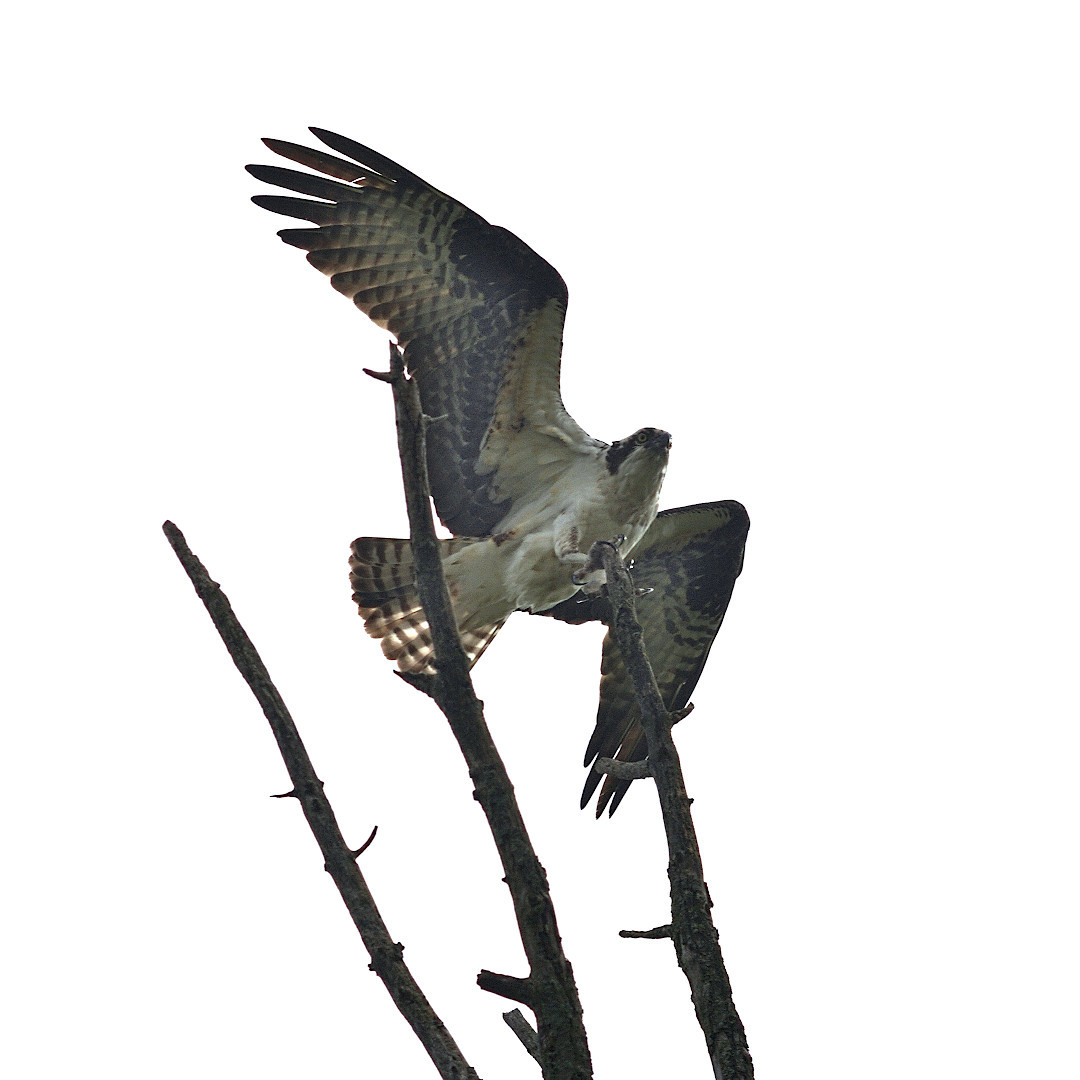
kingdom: Animalia
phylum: Chordata
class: Aves
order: Accipitriformes
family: Pandionidae
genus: Pandion
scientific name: Pandion haliaetus
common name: Osprey
